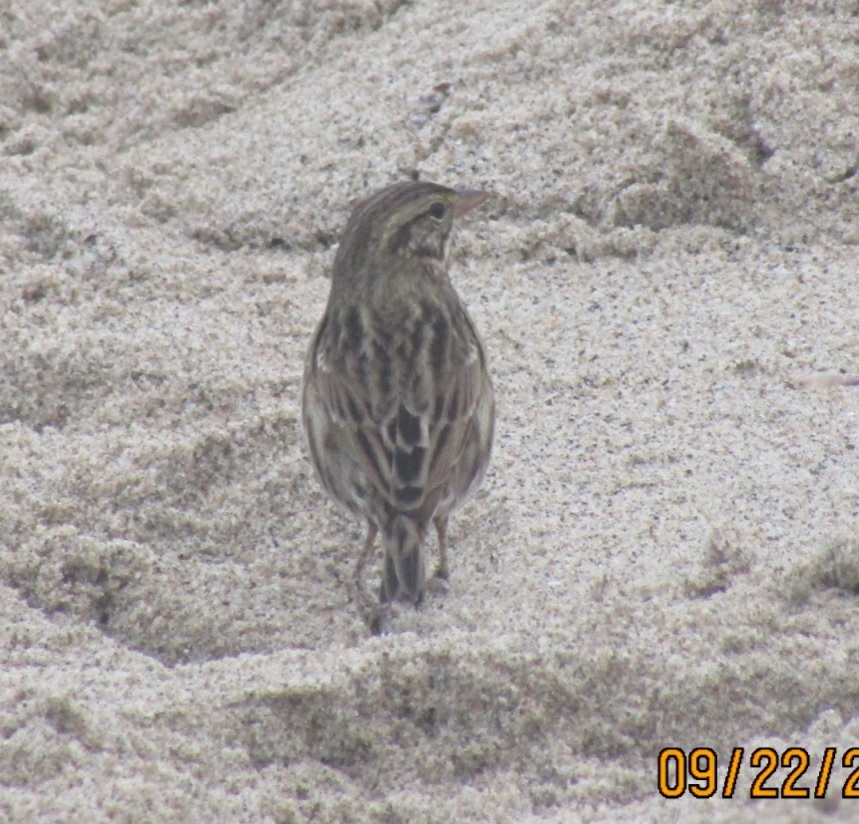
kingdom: Animalia
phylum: Chordata
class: Aves
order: Passeriformes
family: Passerellidae
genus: Passerculus
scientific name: Passerculus sandwichensis
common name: Savannah sparrow
